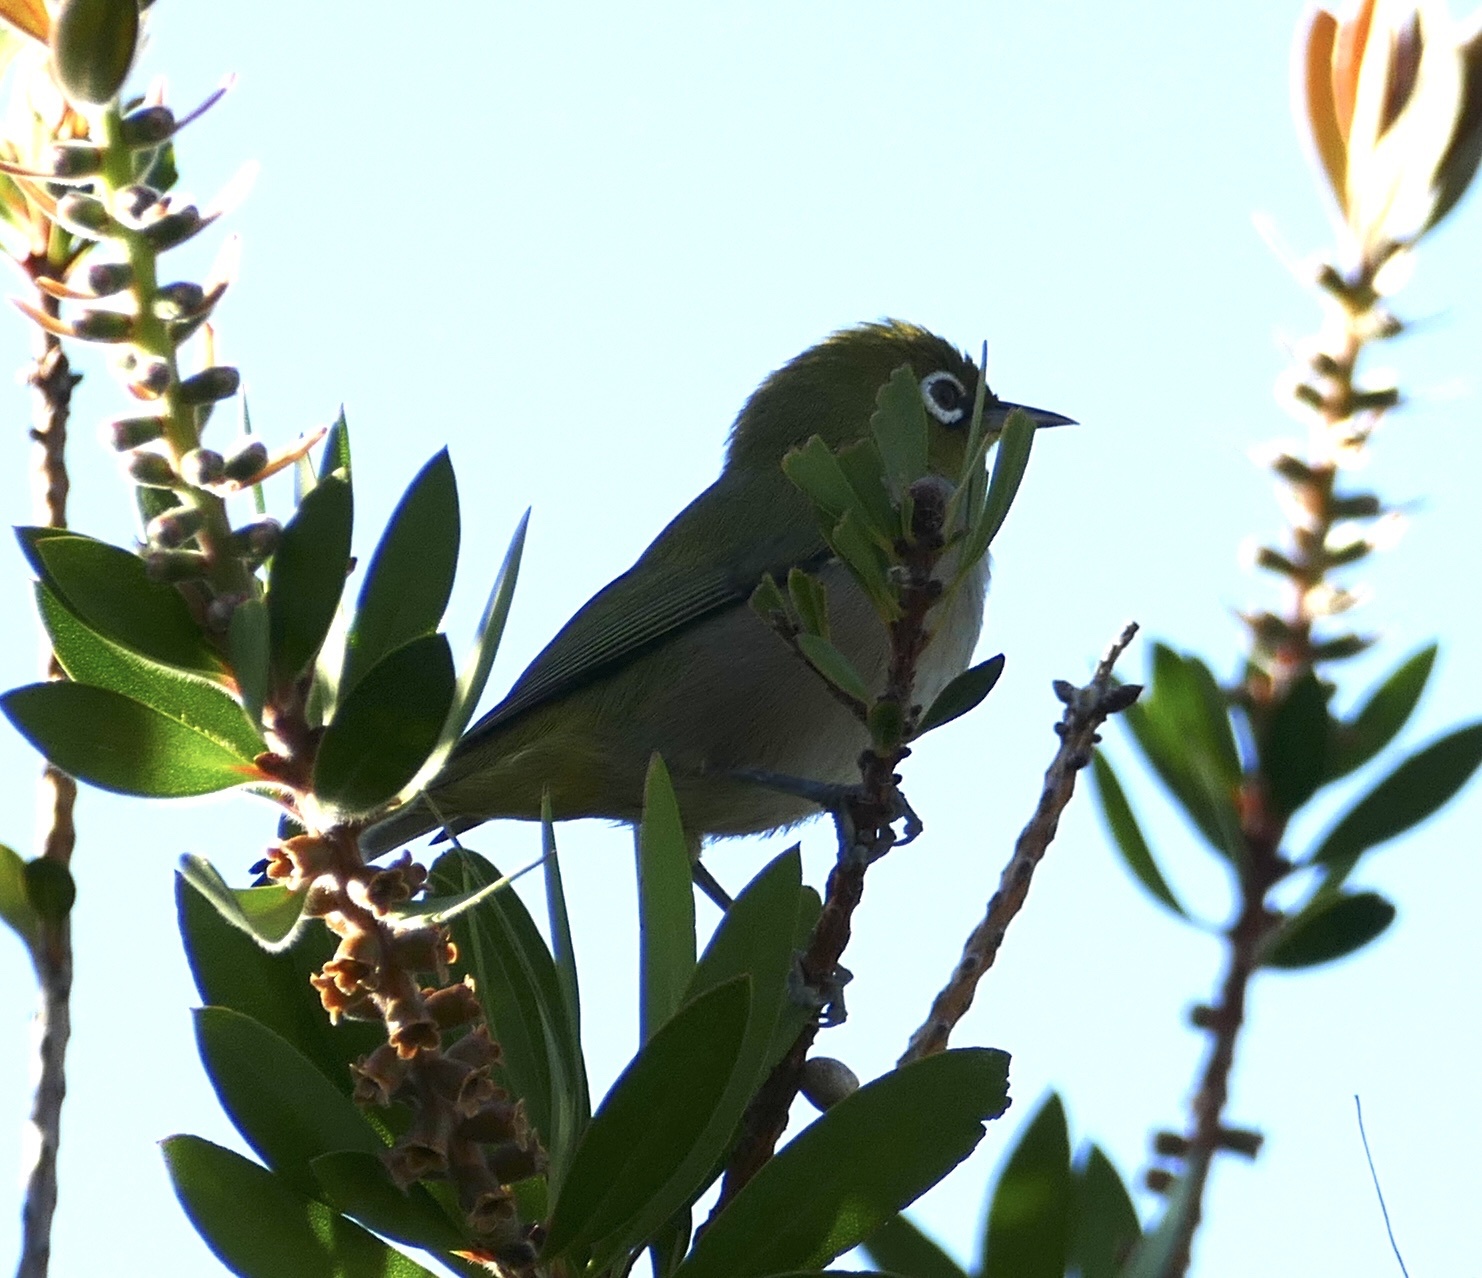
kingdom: Animalia
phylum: Chordata
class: Aves
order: Passeriformes
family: Zosteropidae
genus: Zosterops
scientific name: Zosterops virens
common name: Cape white-eye
